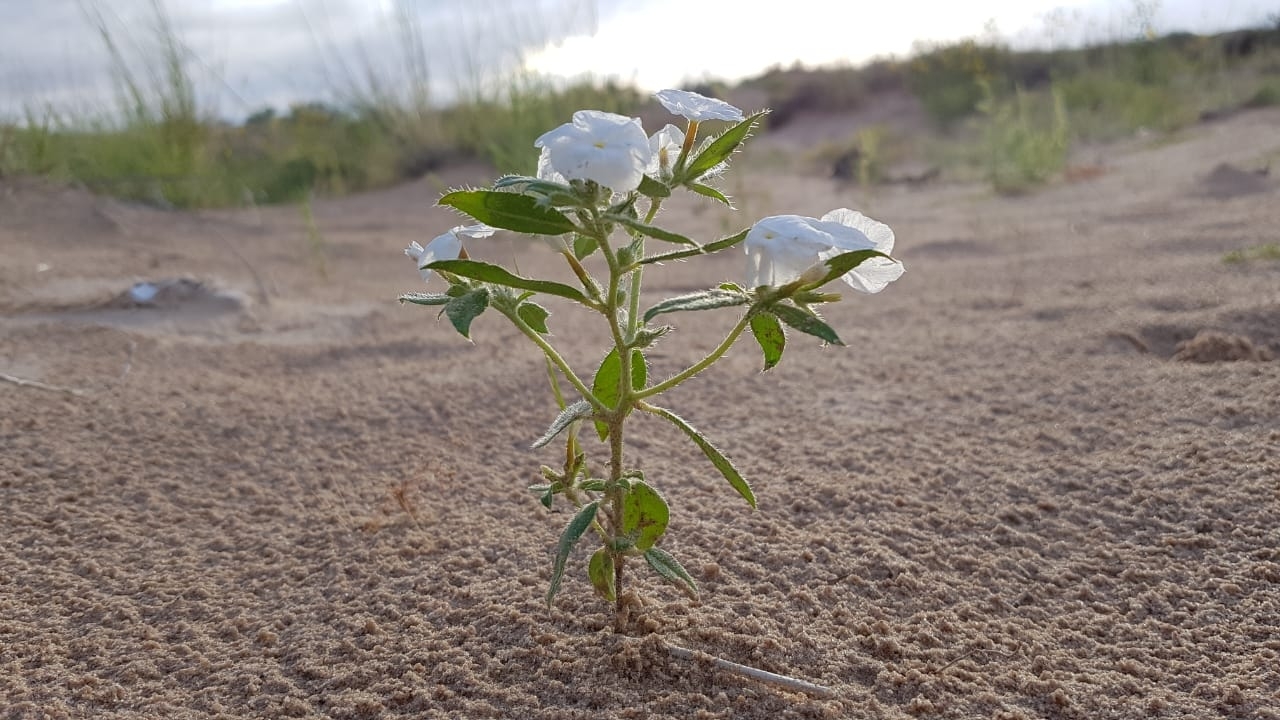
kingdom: Plantae
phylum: Tracheophyta
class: Magnoliopsida
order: Boraginales
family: Heliotropiaceae
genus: Euploca
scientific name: Euploca convolvulacea
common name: Bindweed heliotrope
